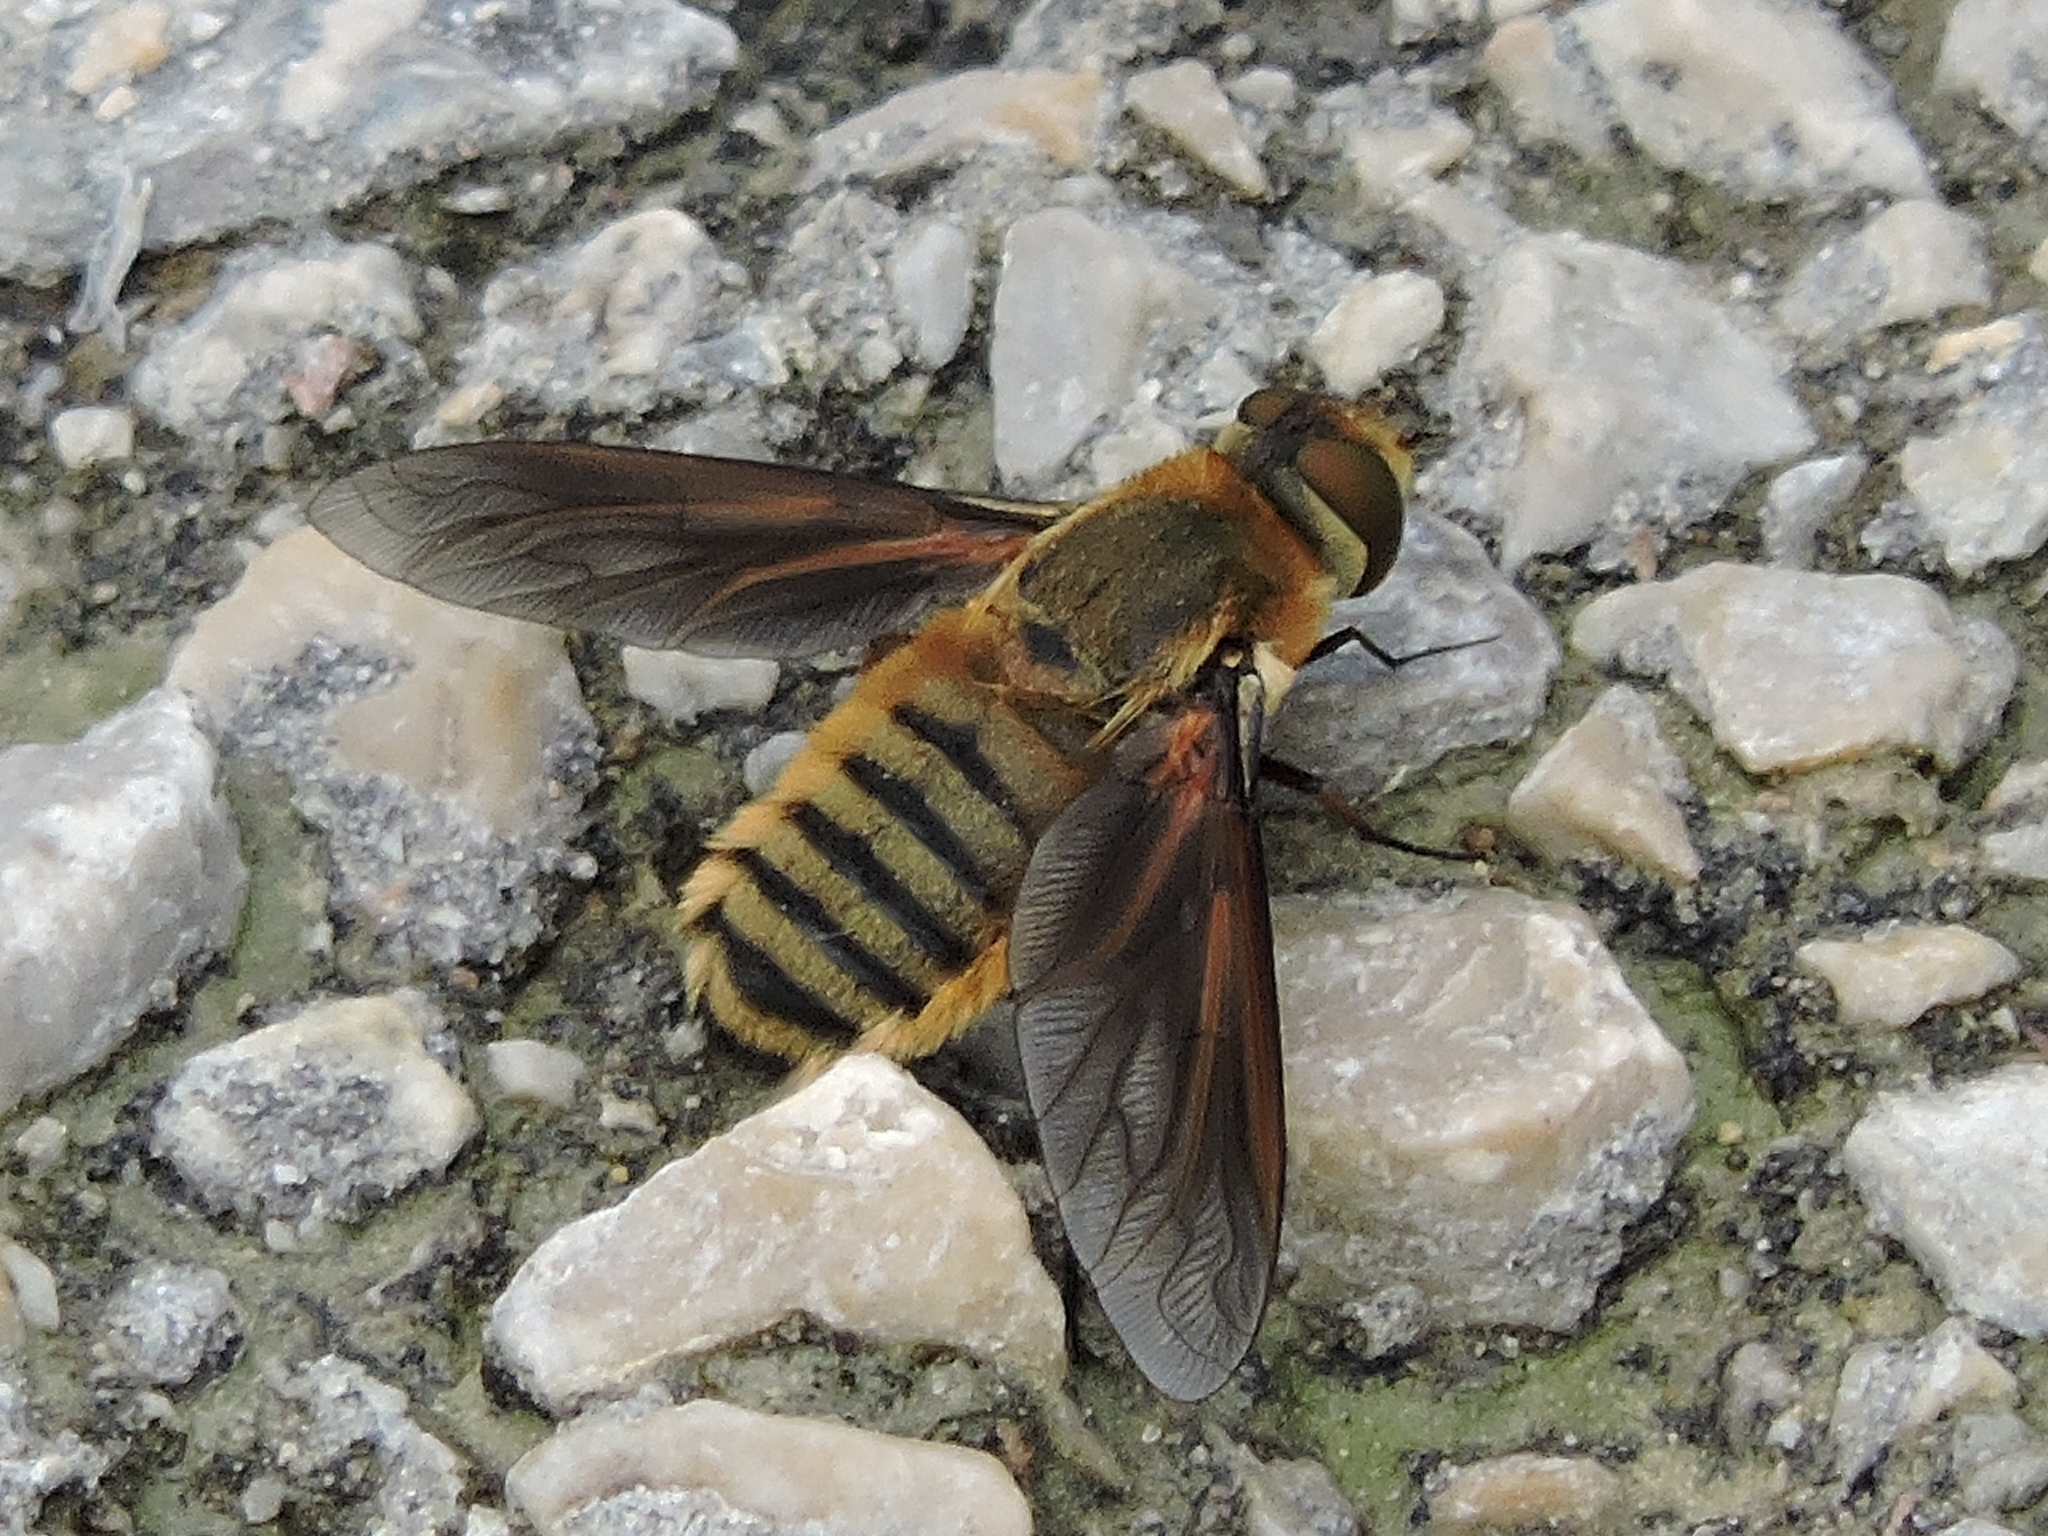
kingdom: Animalia
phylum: Arthropoda
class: Insecta
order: Diptera
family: Bombyliidae
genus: Poecilanthrax
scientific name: Poecilanthrax lucifer
